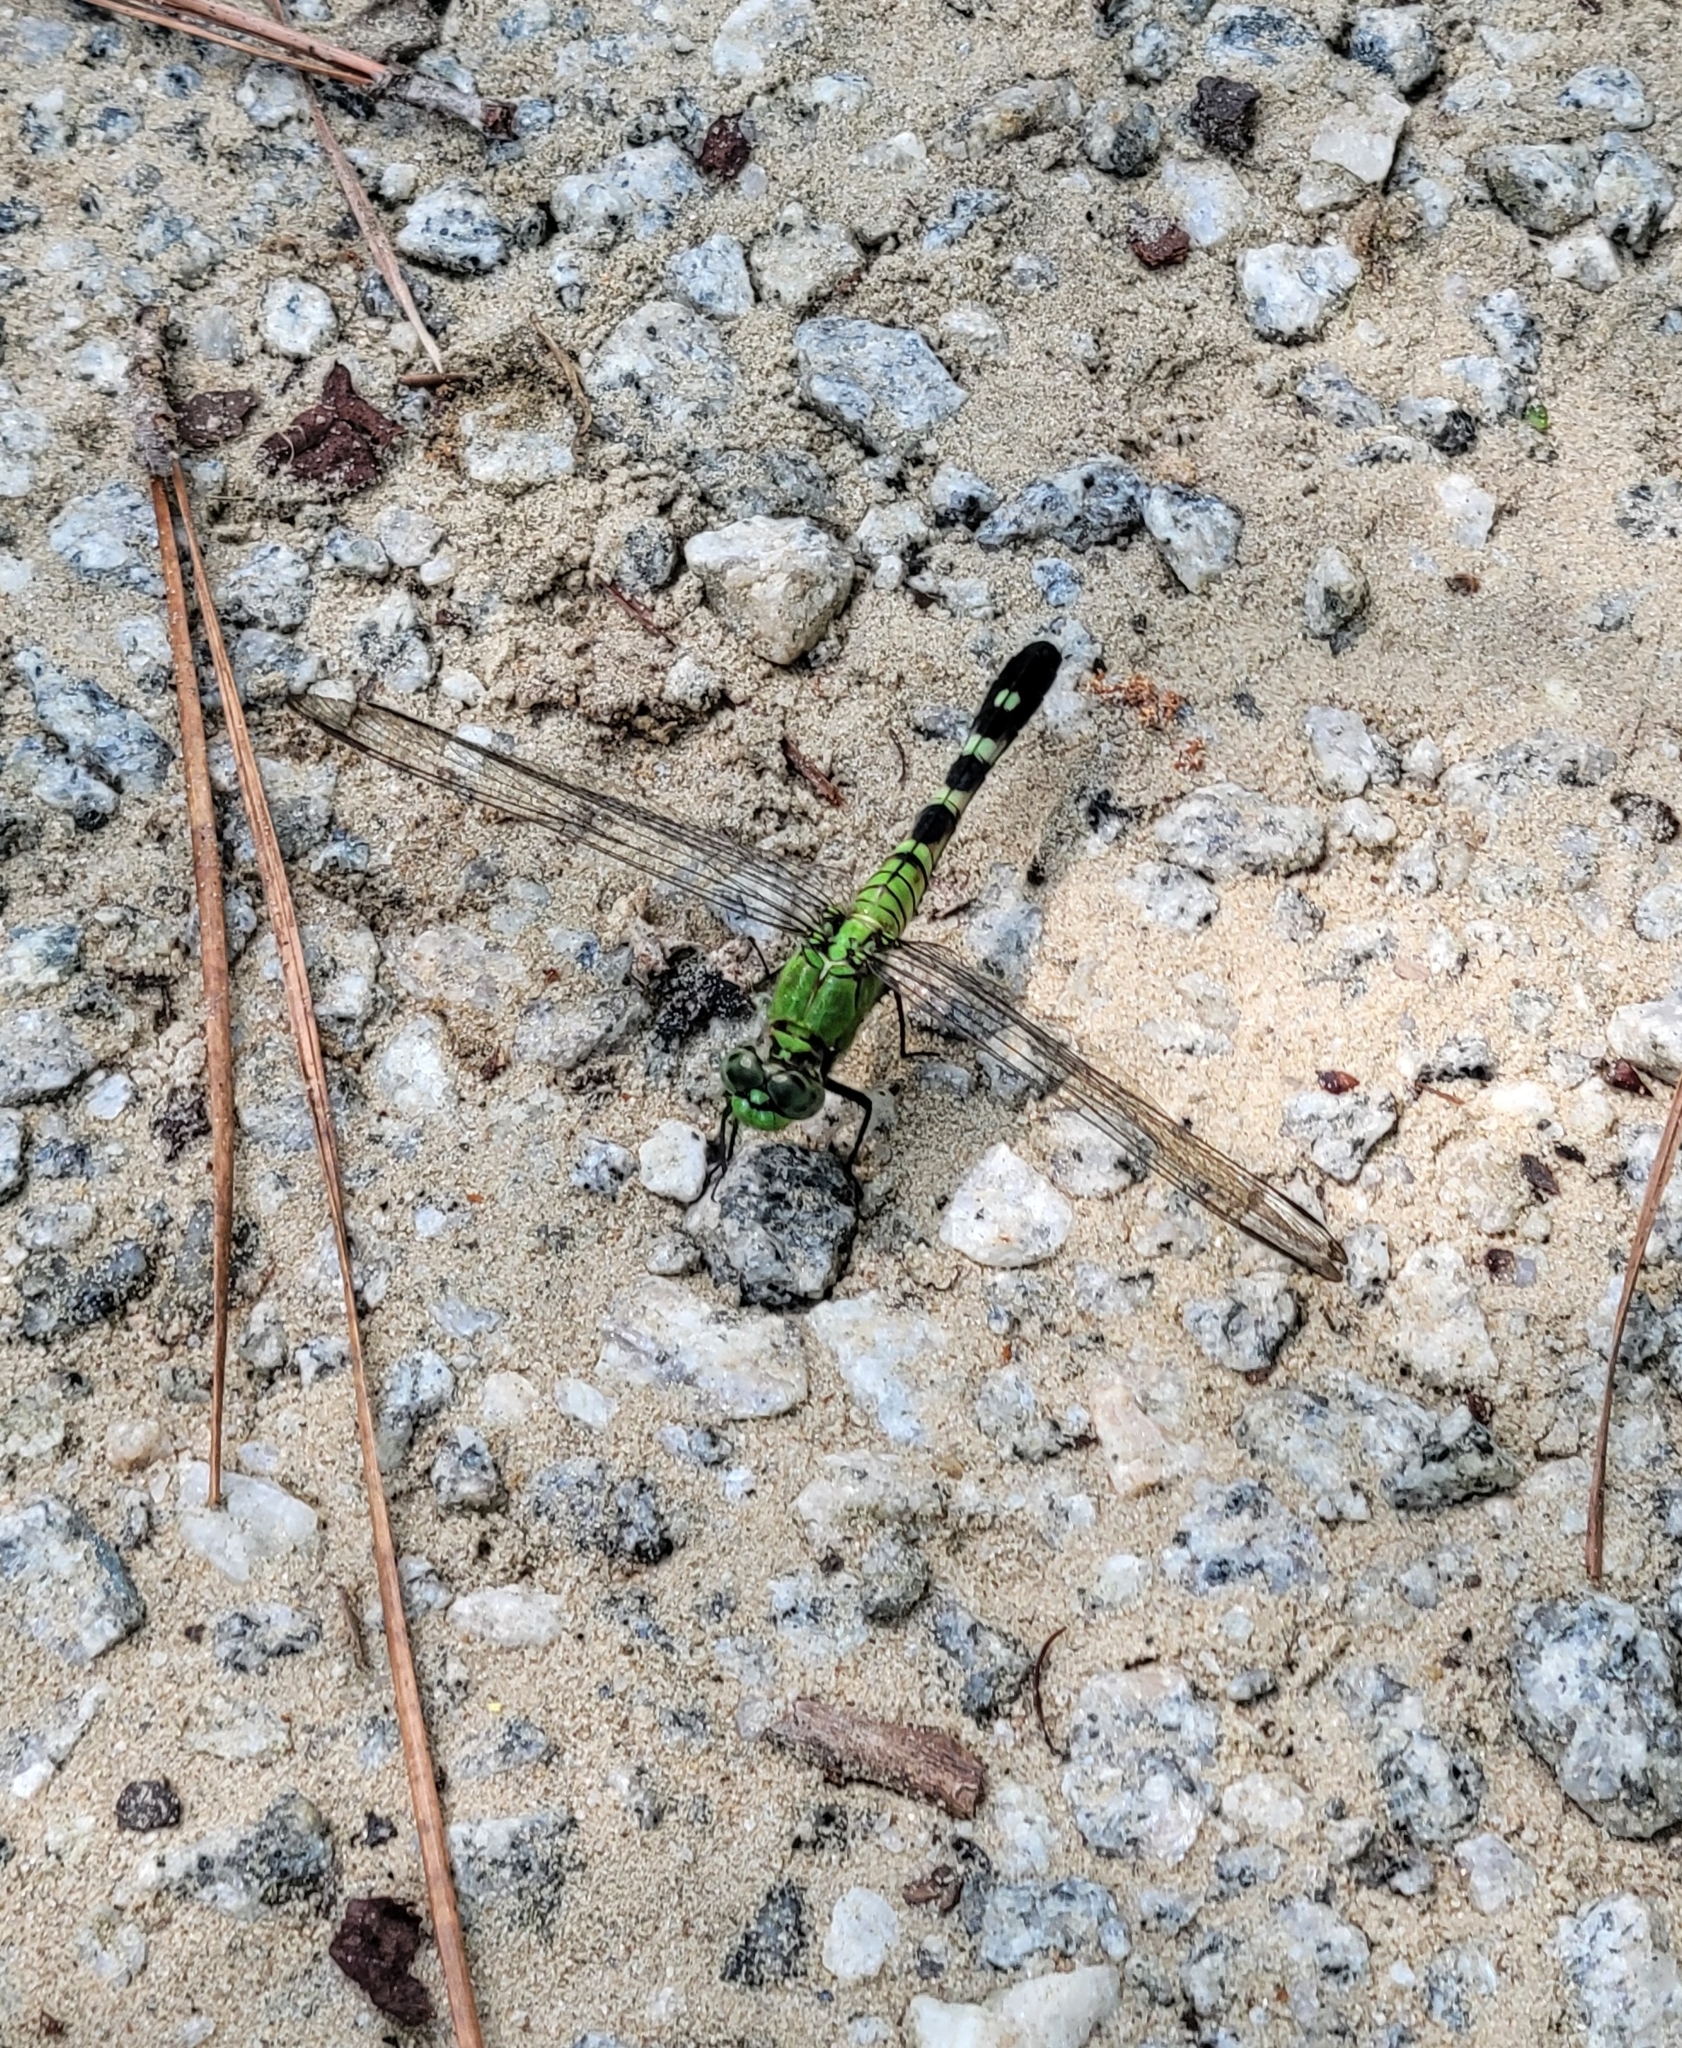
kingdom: Animalia
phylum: Arthropoda
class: Insecta
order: Odonata
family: Libellulidae
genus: Erythemis
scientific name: Erythemis simplicicollis
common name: Eastern pondhawk
